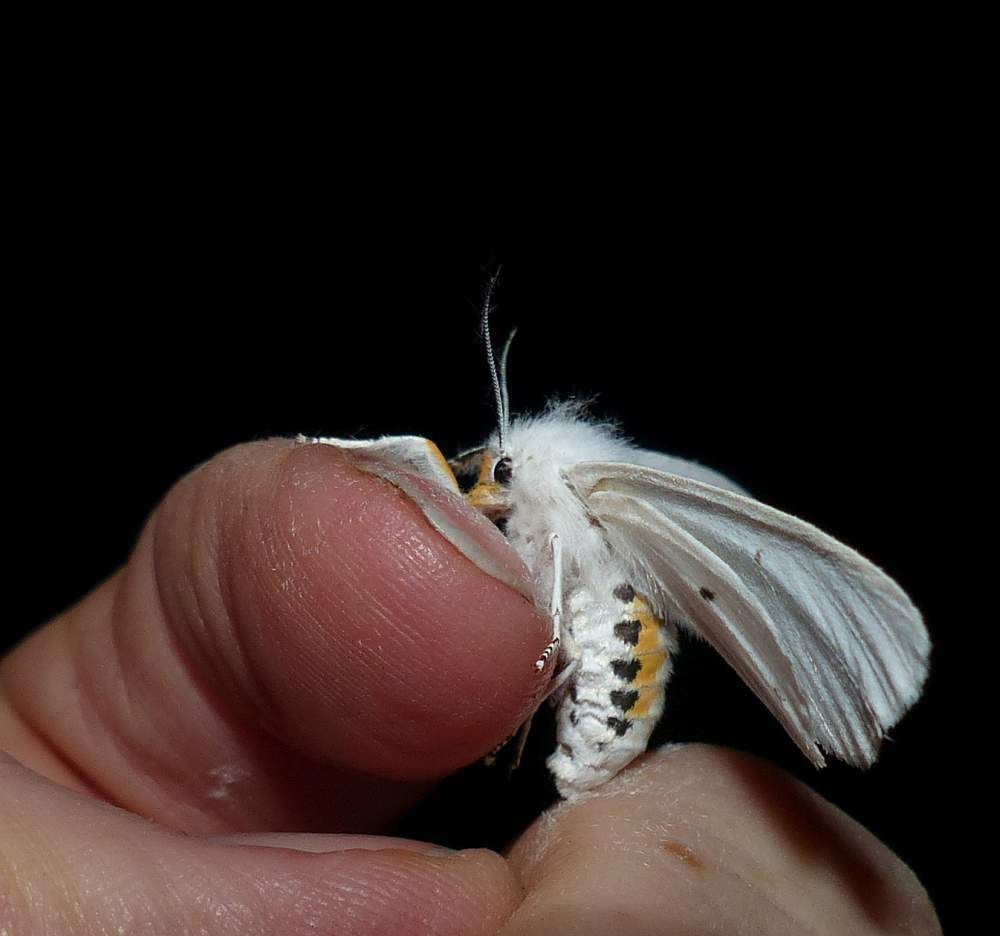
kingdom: Animalia
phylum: Arthropoda
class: Insecta
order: Lepidoptera
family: Erebidae
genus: Spilosoma
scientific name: Spilosoma virginica
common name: Virginia tiger moth
